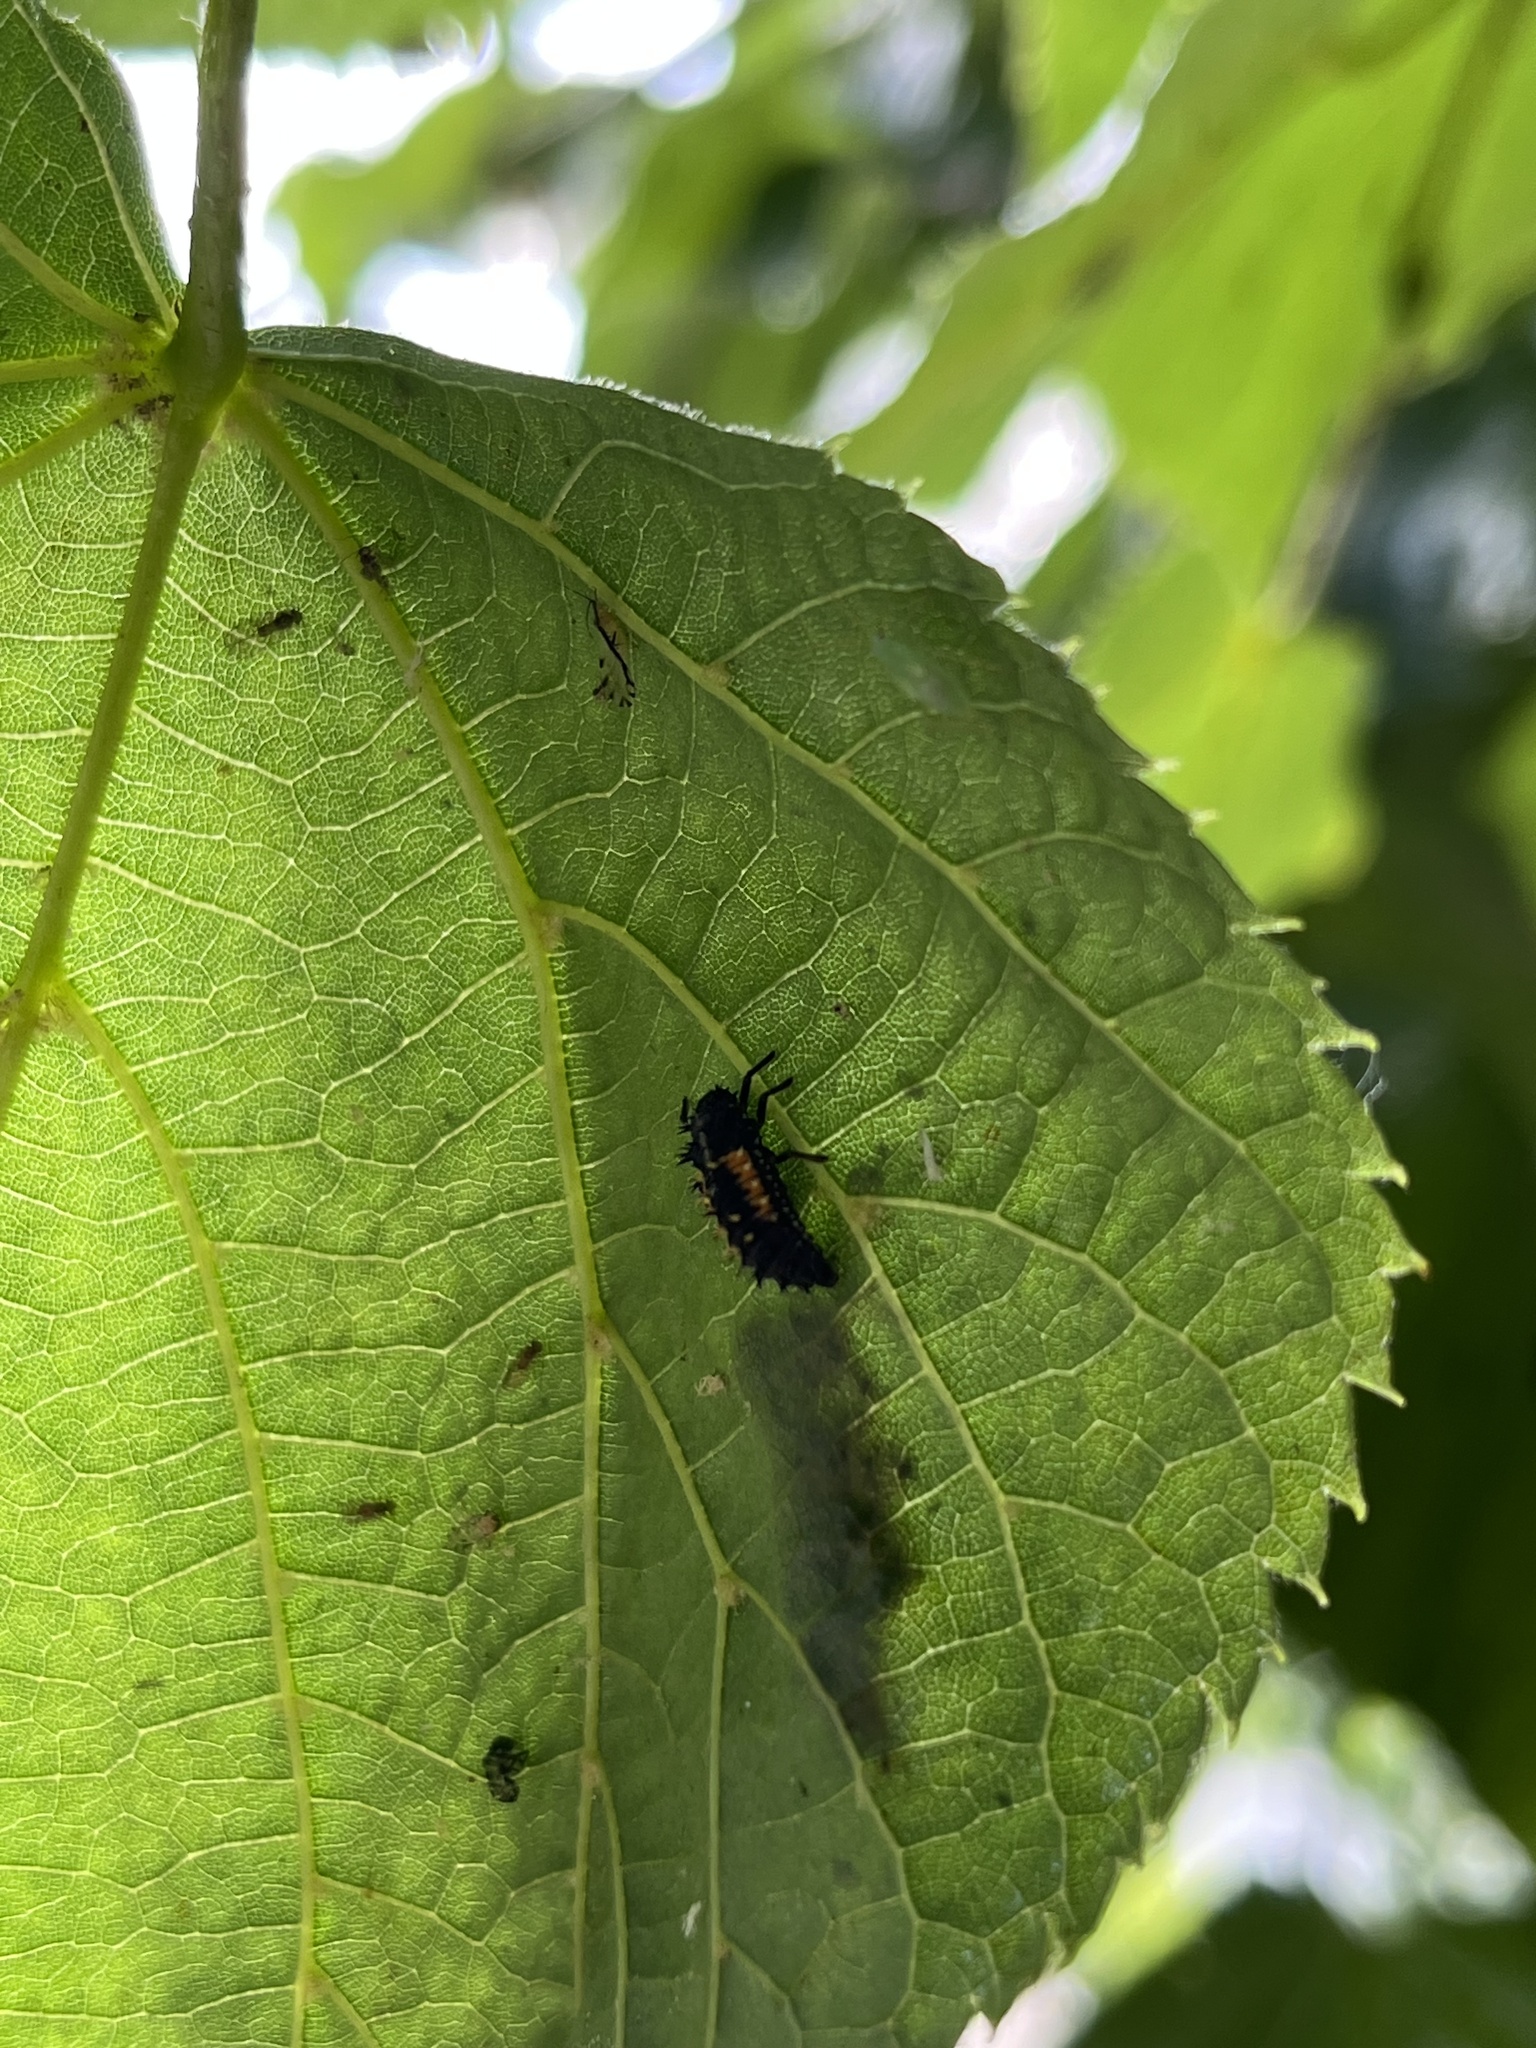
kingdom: Animalia
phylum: Arthropoda
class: Insecta
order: Coleoptera
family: Coccinellidae
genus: Harmonia
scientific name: Harmonia axyridis
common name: Harlequin ladybird
